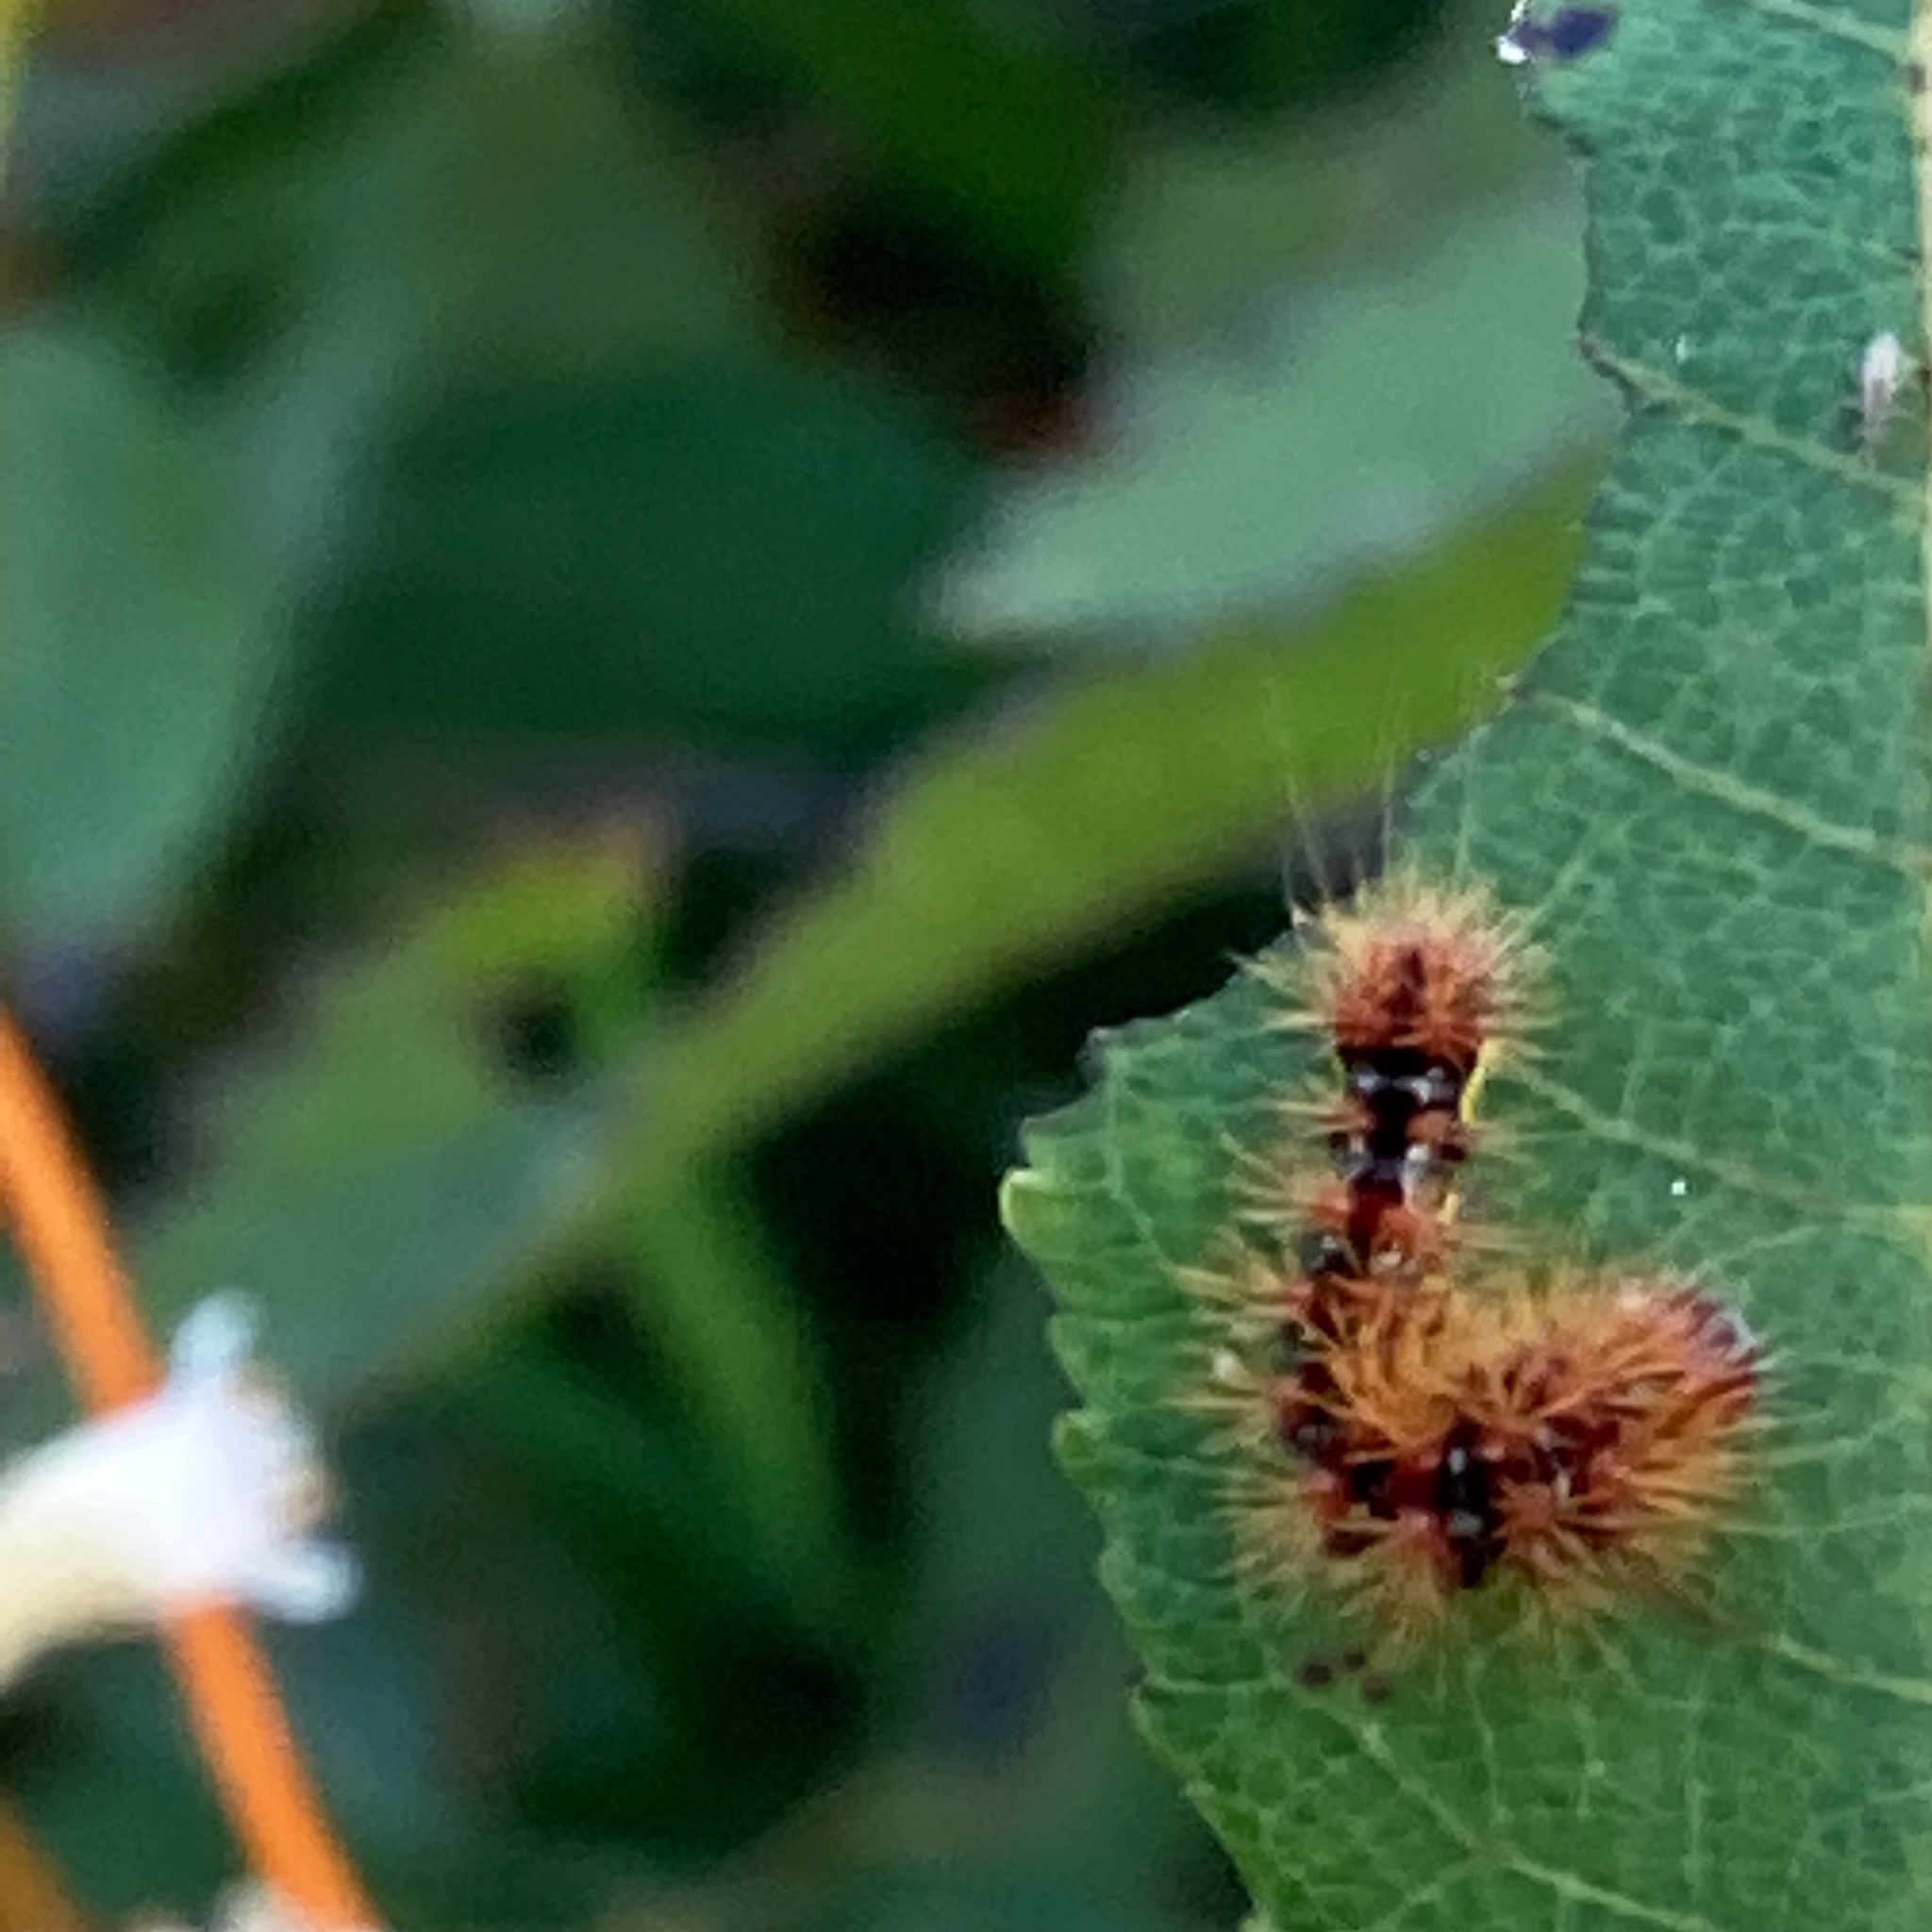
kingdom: Animalia
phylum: Arthropoda
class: Insecta
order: Lepidoptera
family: Noctuidae
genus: Acronicta
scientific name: Acronicta oblinita
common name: Smeared dagger
